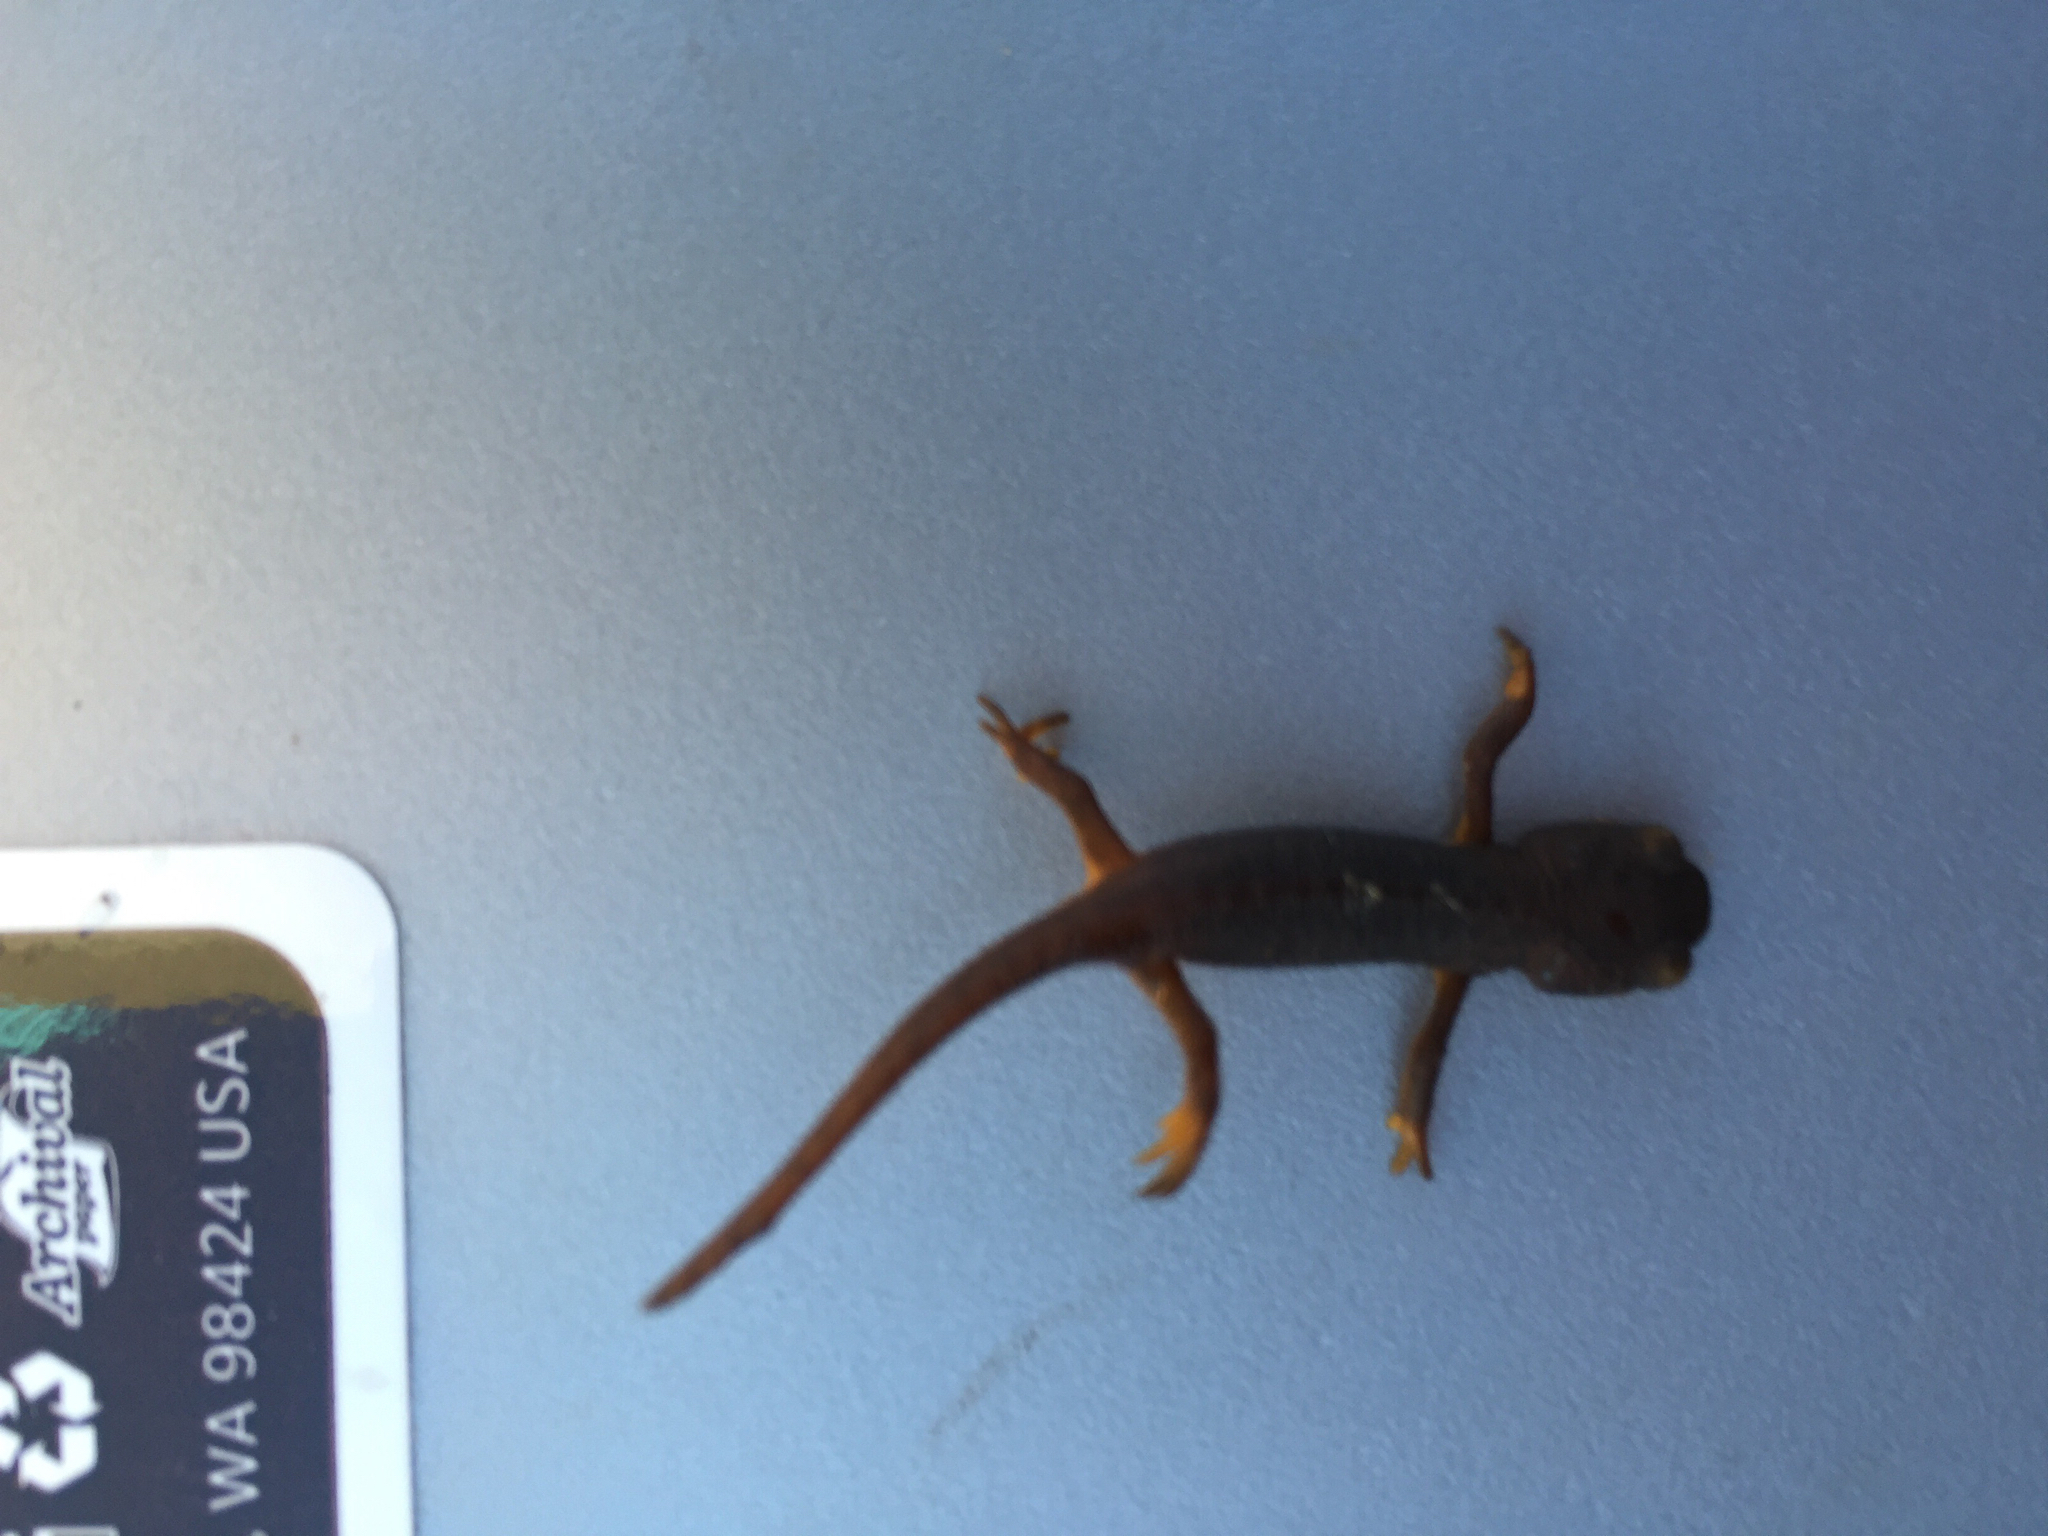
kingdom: Animalia
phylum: Chordata
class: Amphibia
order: Caudata
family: Salamandridae
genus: Taricha
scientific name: Taricha torosa
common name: California newt
